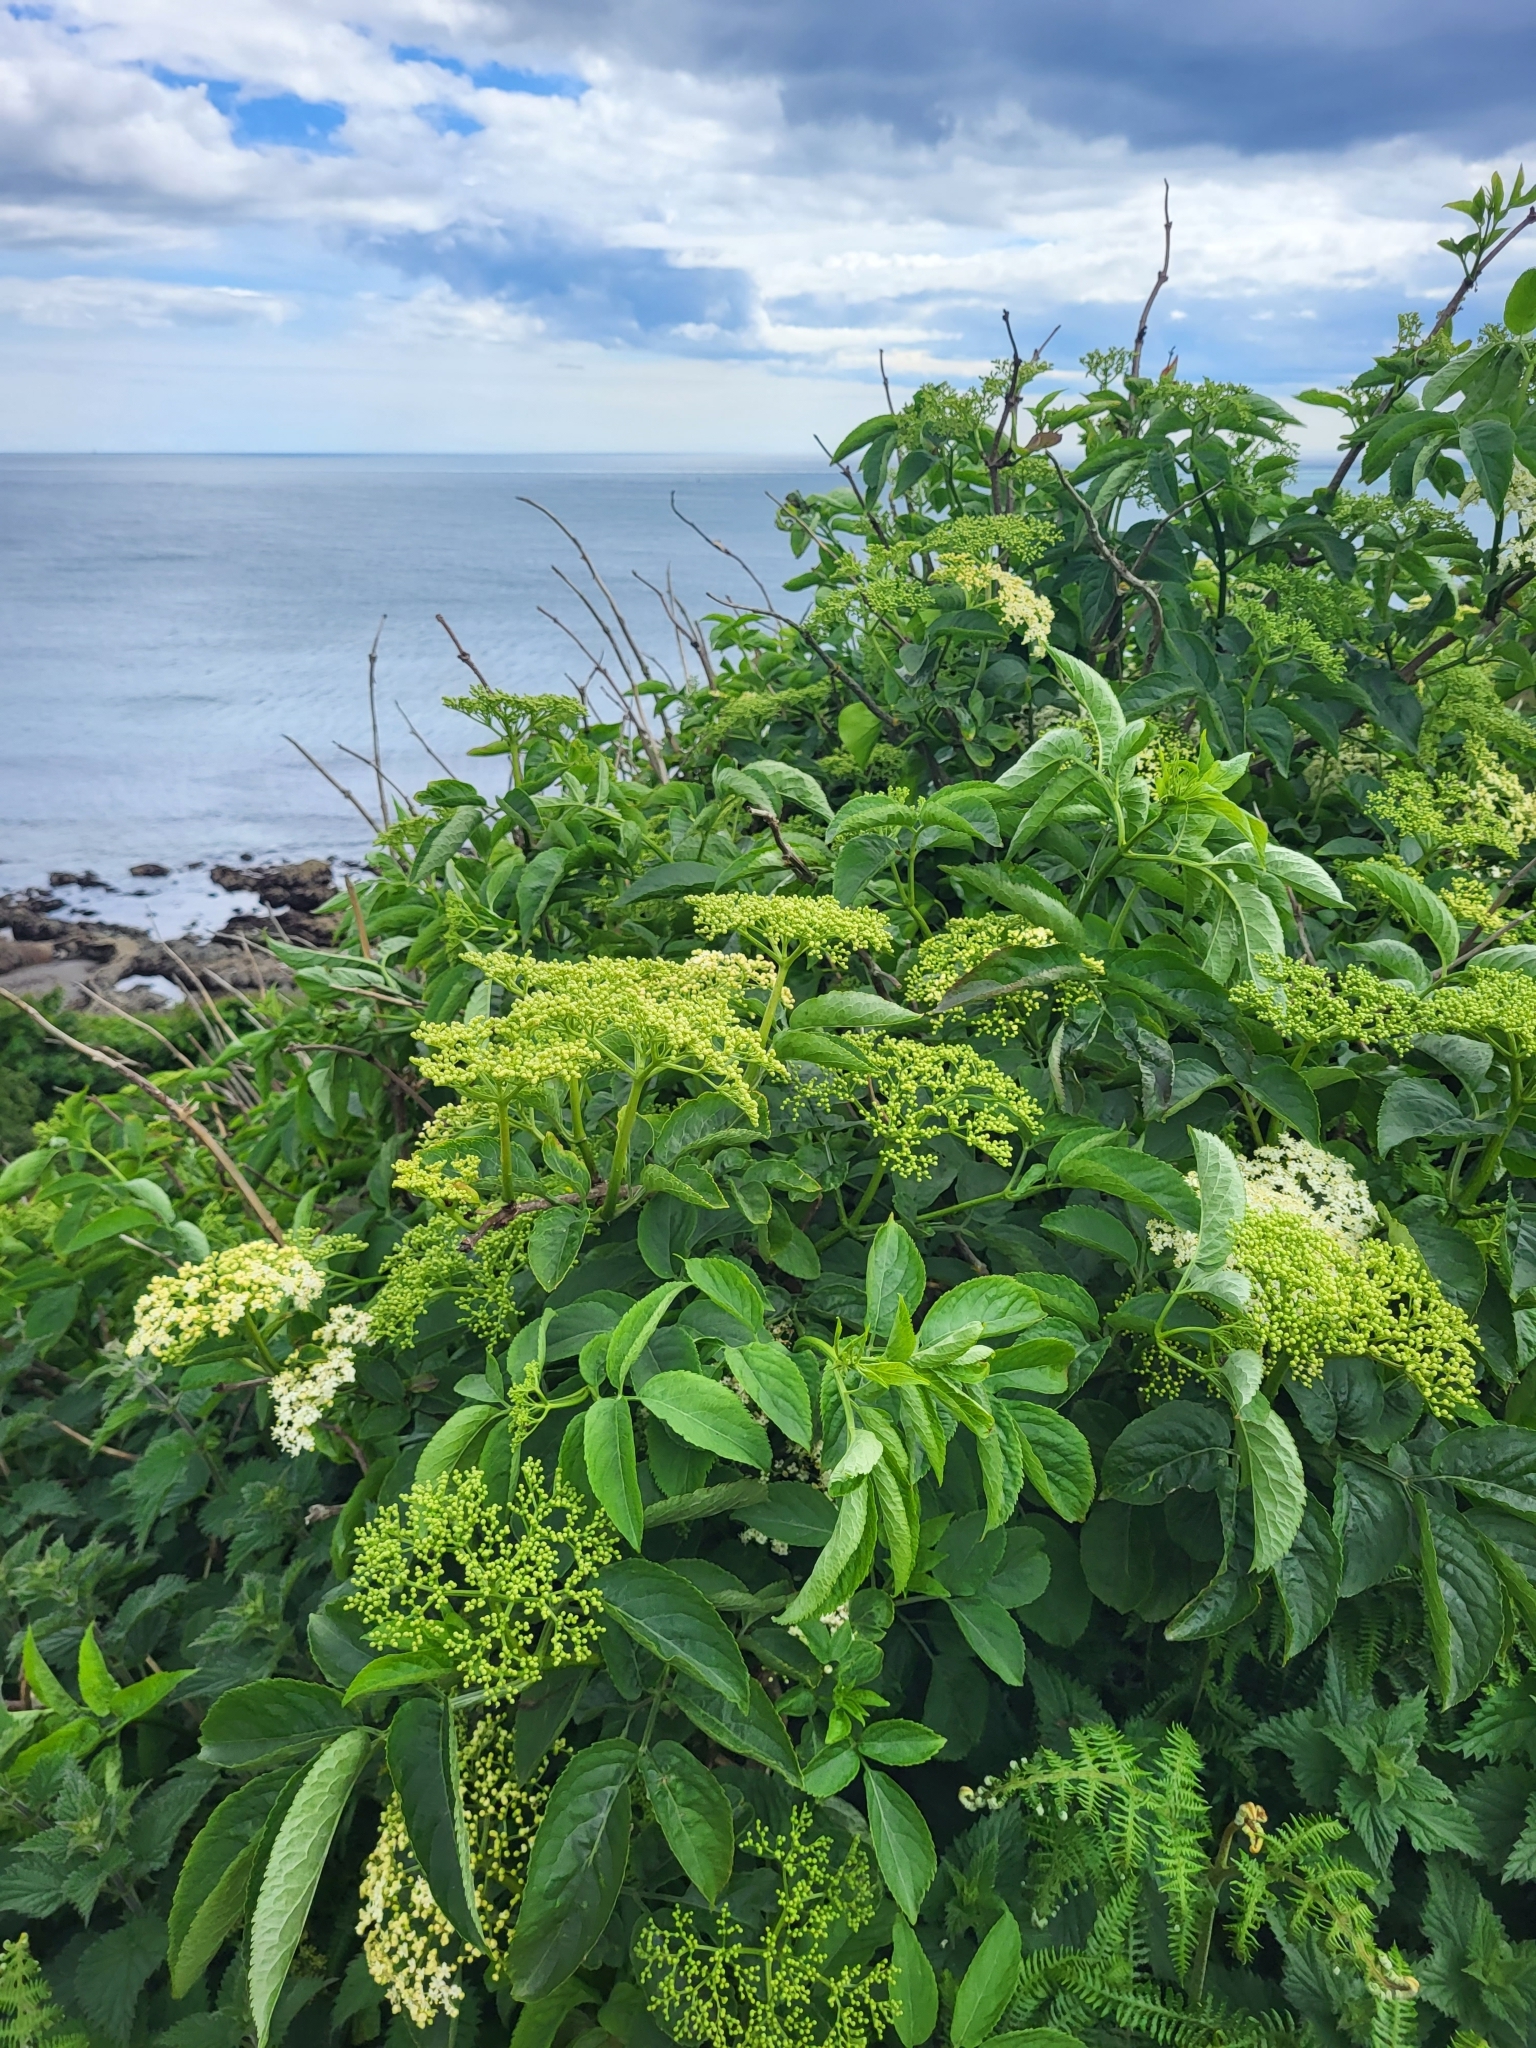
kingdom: Plantae
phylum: Tracheophyta
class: Magnoliopsida
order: Dipsacales
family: Viburnaceae
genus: Sambucus
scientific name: Sambucus nigra
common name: Elder
